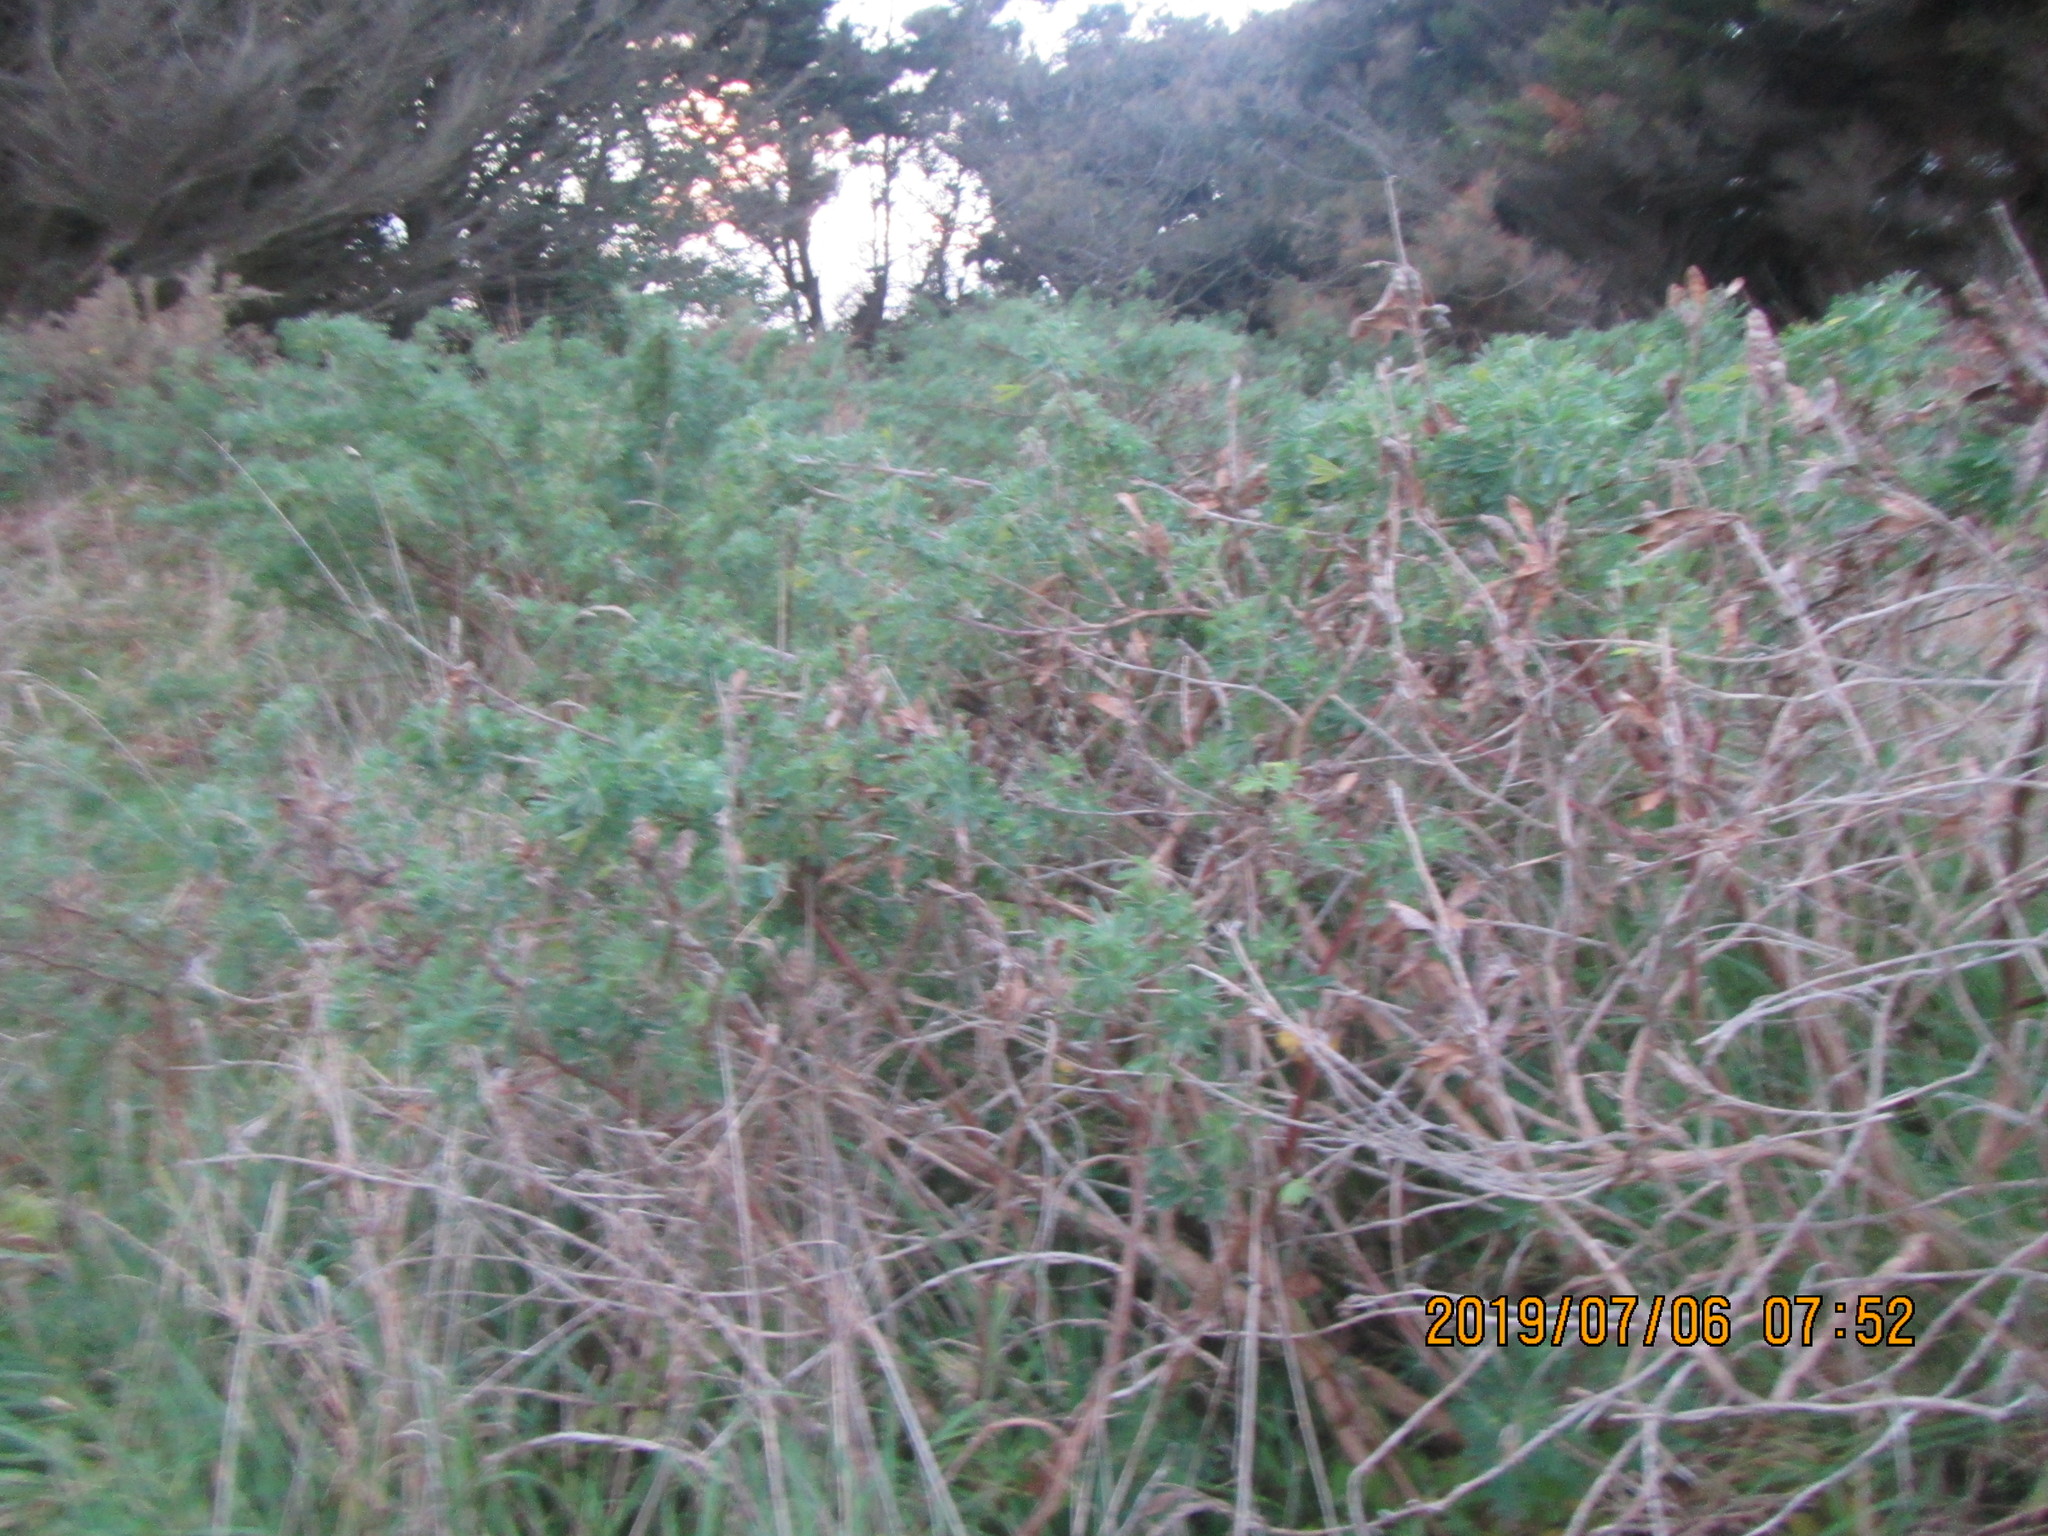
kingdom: Plantae
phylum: Tracheophyta
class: Magnoliopsida
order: Fabales
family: Fabaceae
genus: Lupinus
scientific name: Lupinus arboreus
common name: Yellow bush lupine
